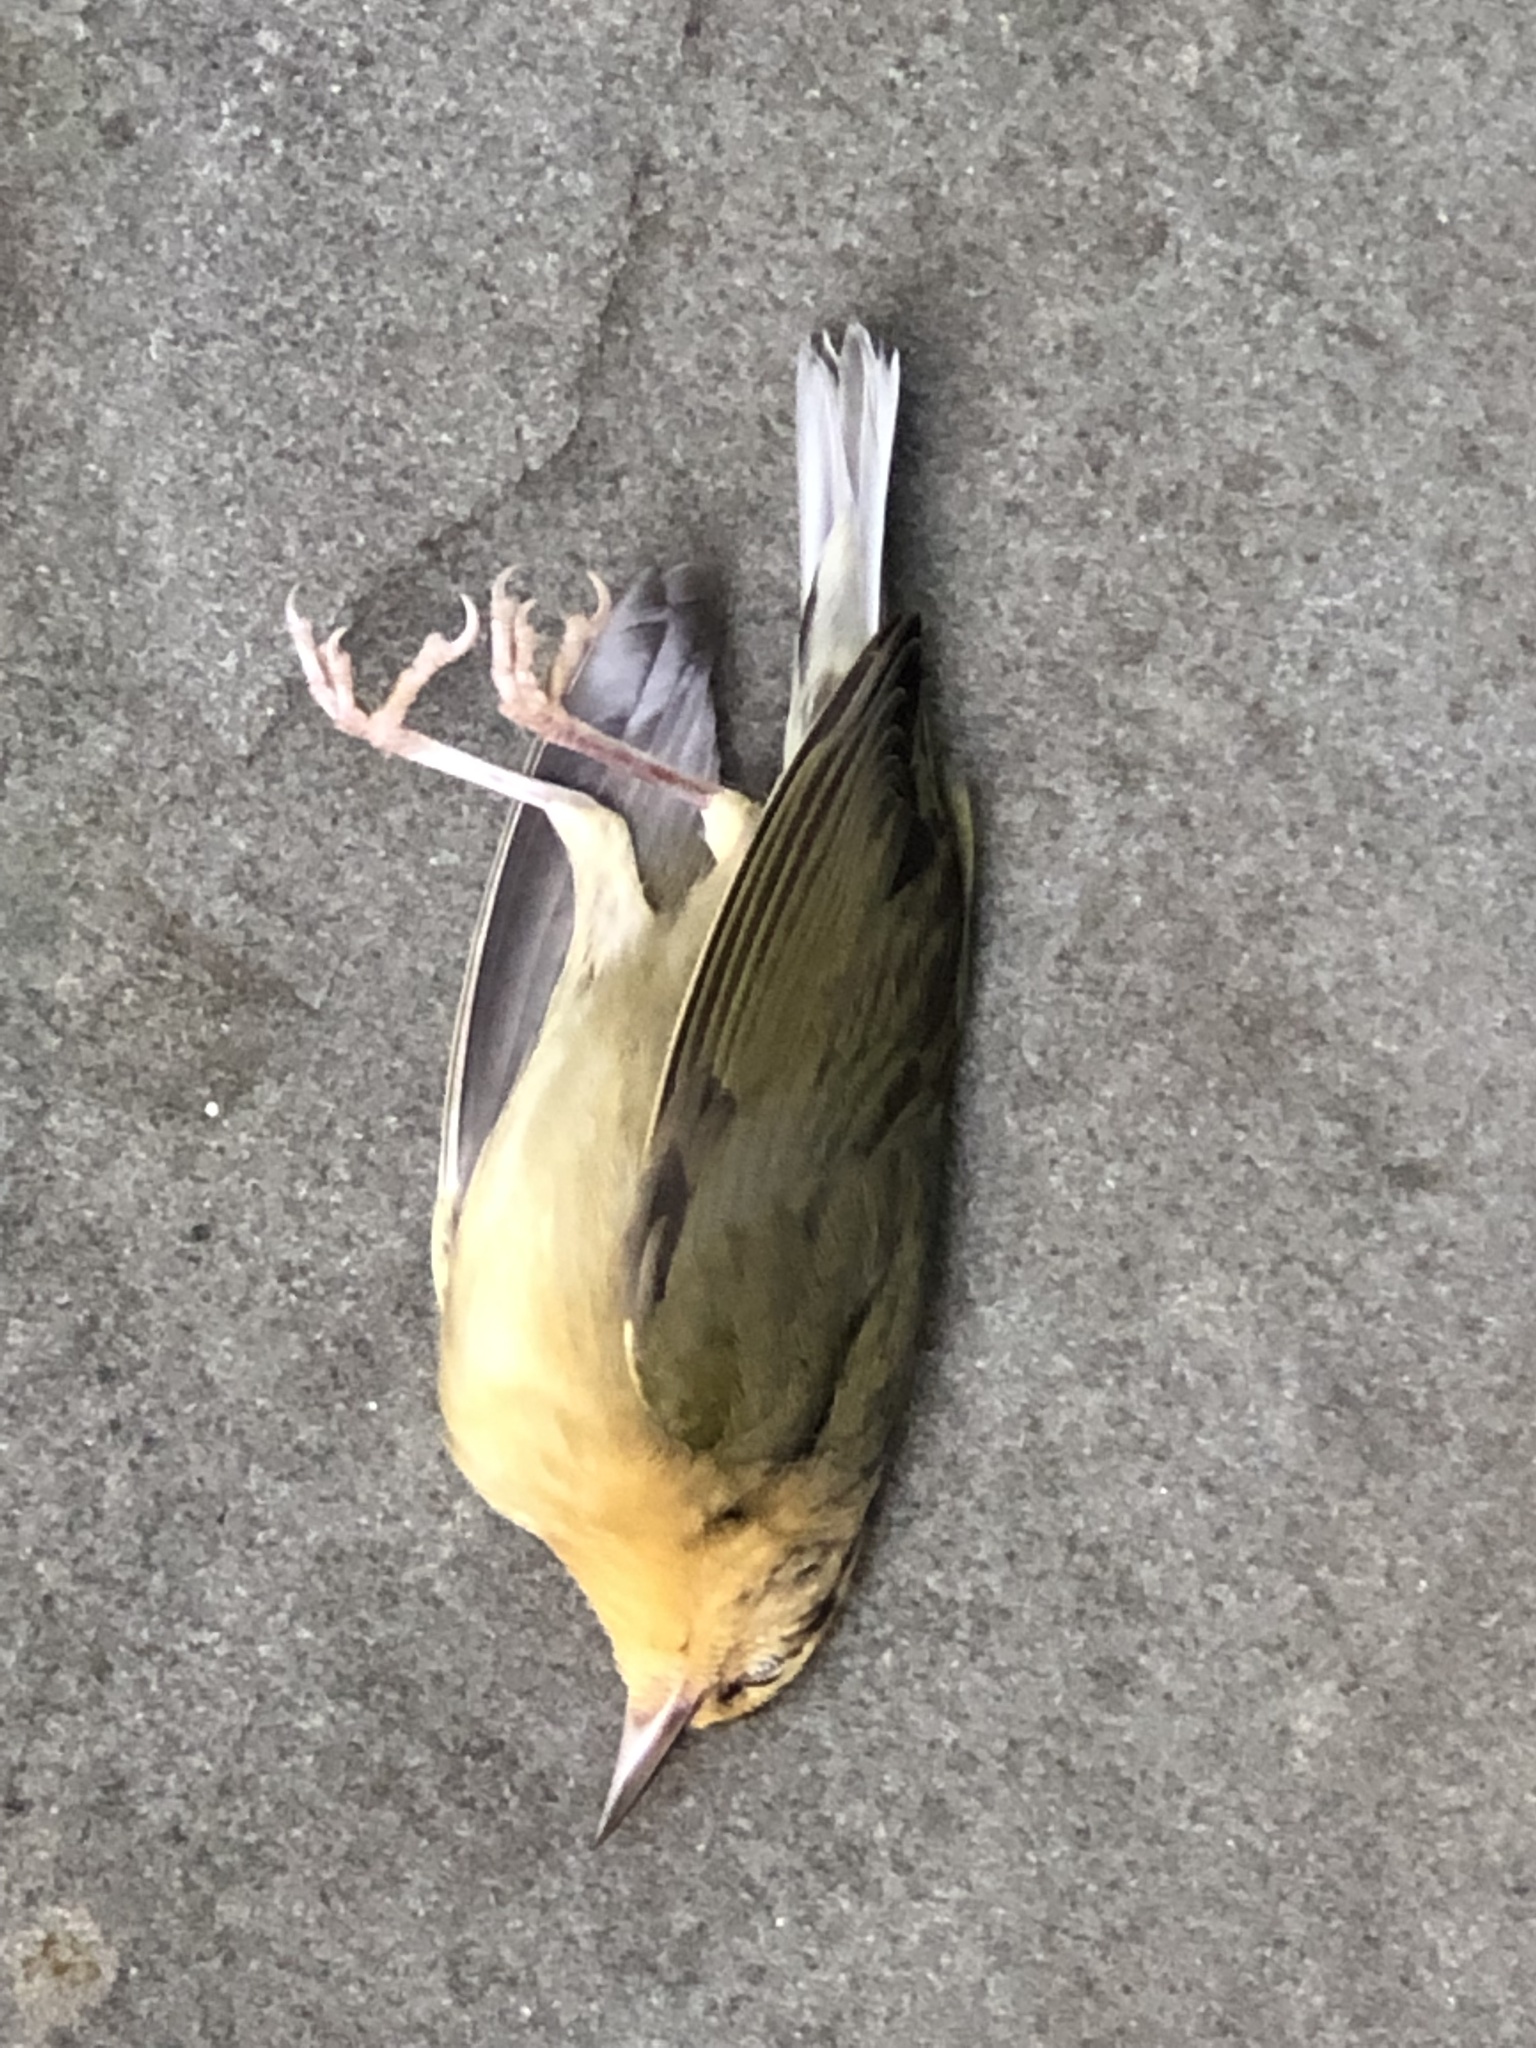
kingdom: Animalia
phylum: Chordata
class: Aves
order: Passeriformes
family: Parulidae
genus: Helmitheros
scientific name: Helmitheros vermivorum
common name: Worm-eating warbler
